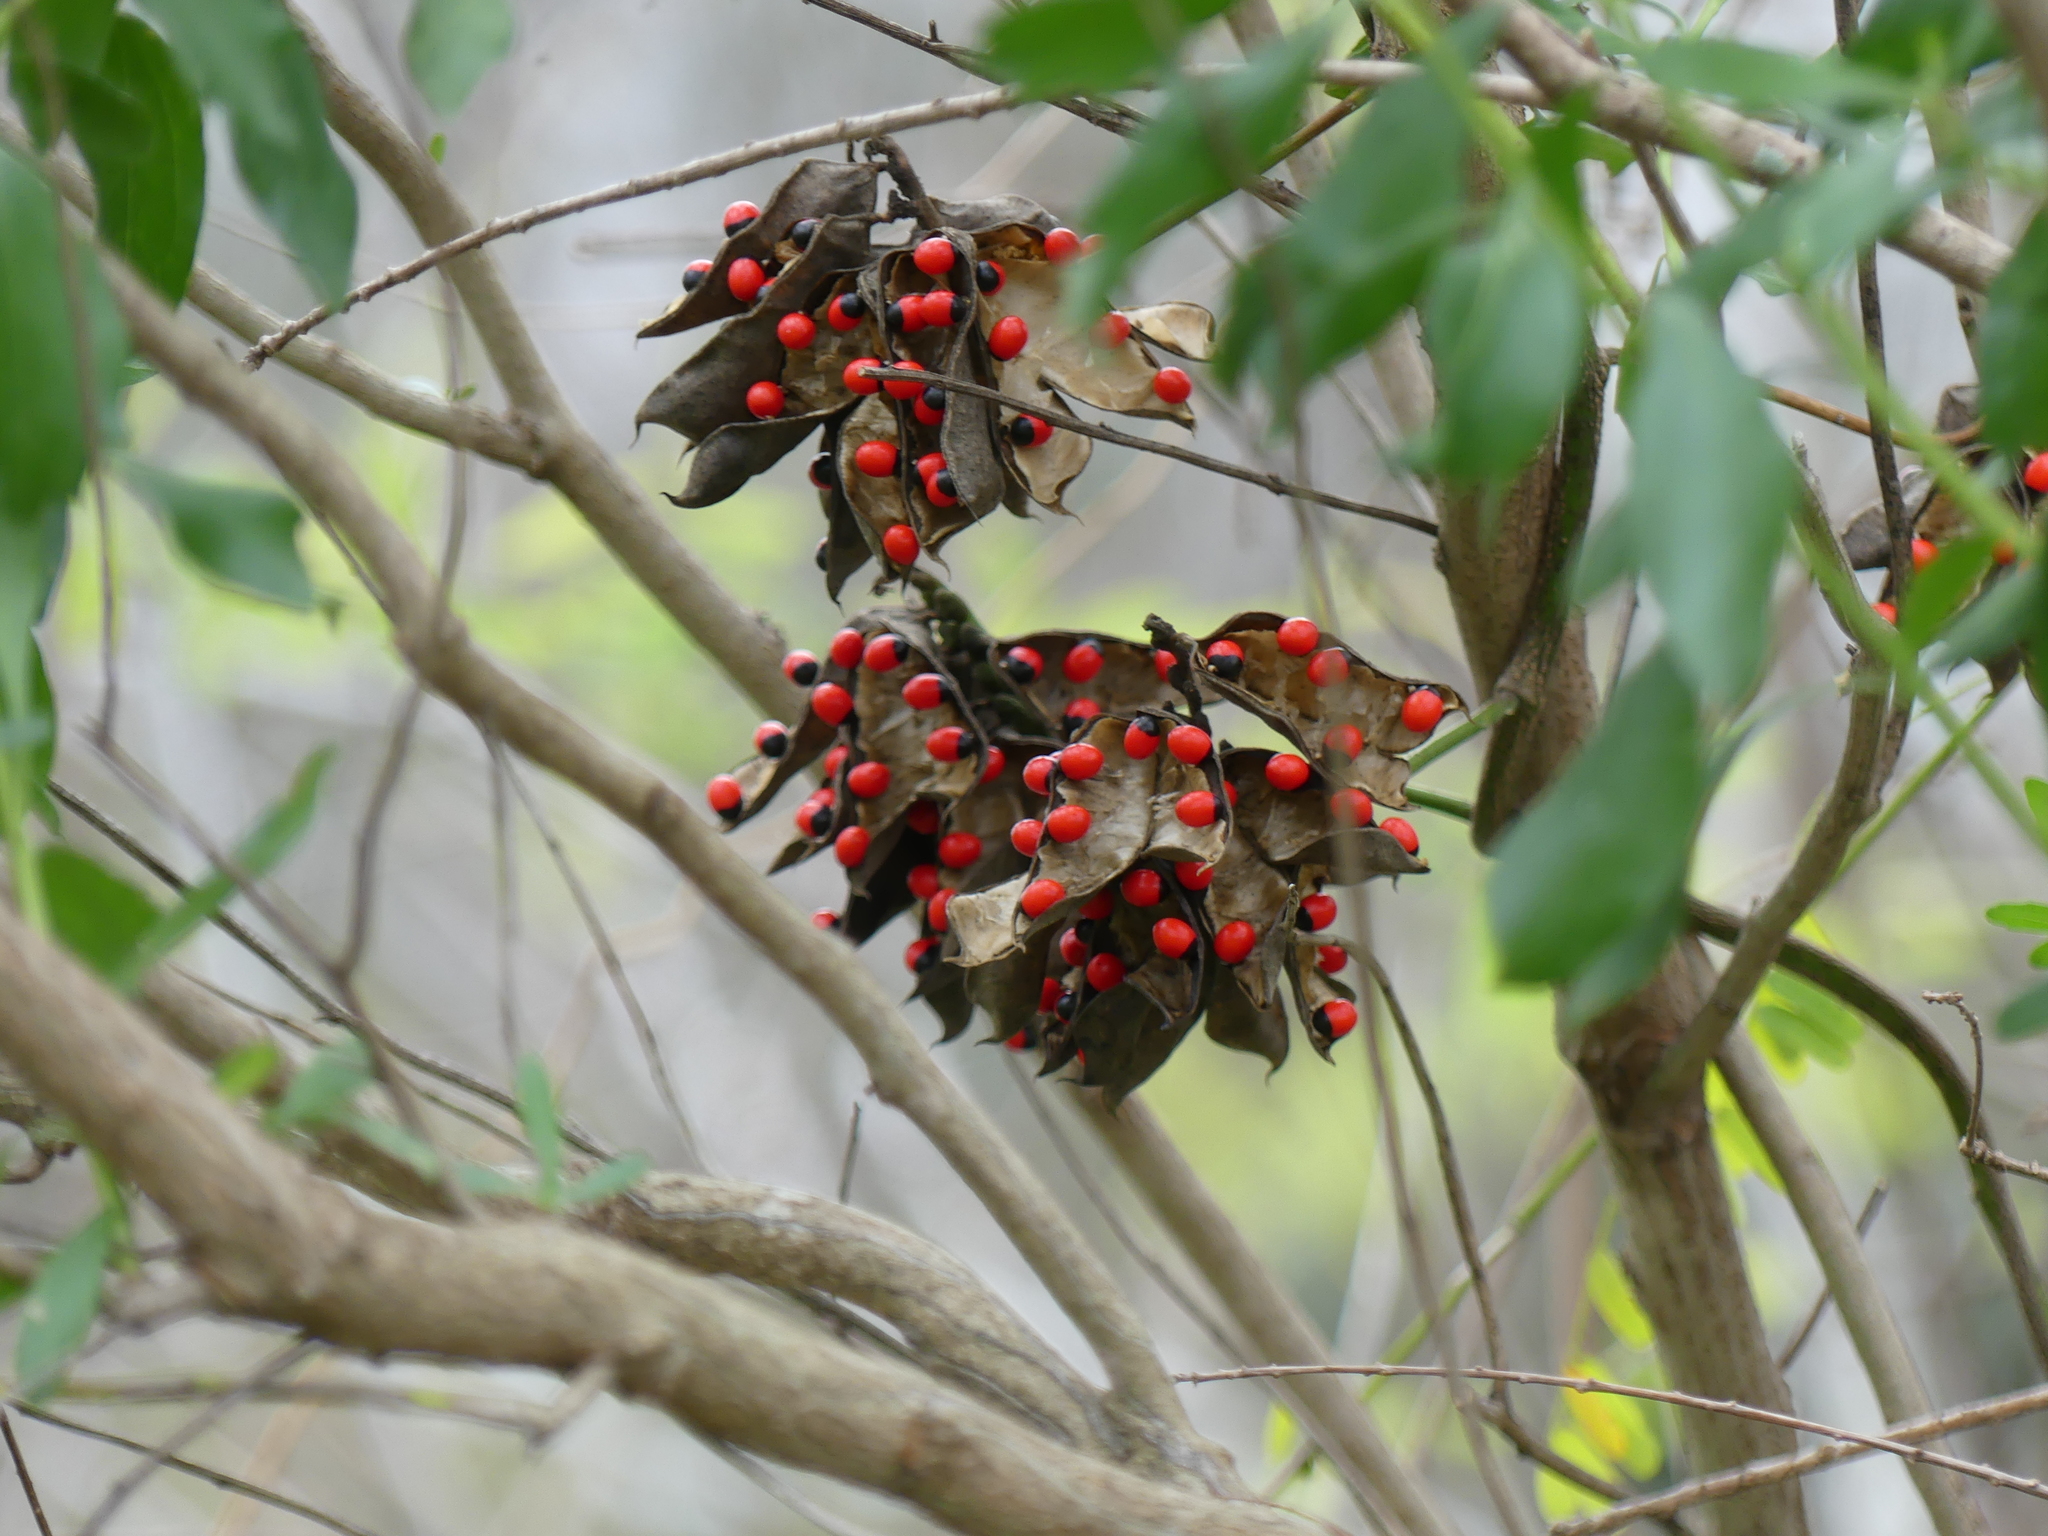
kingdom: Plantae
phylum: Tracheophyta
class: Magnoliopsida
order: Fabales
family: Fabaceae
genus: Abrus
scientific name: Abrus precatorius
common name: Rosarypea
